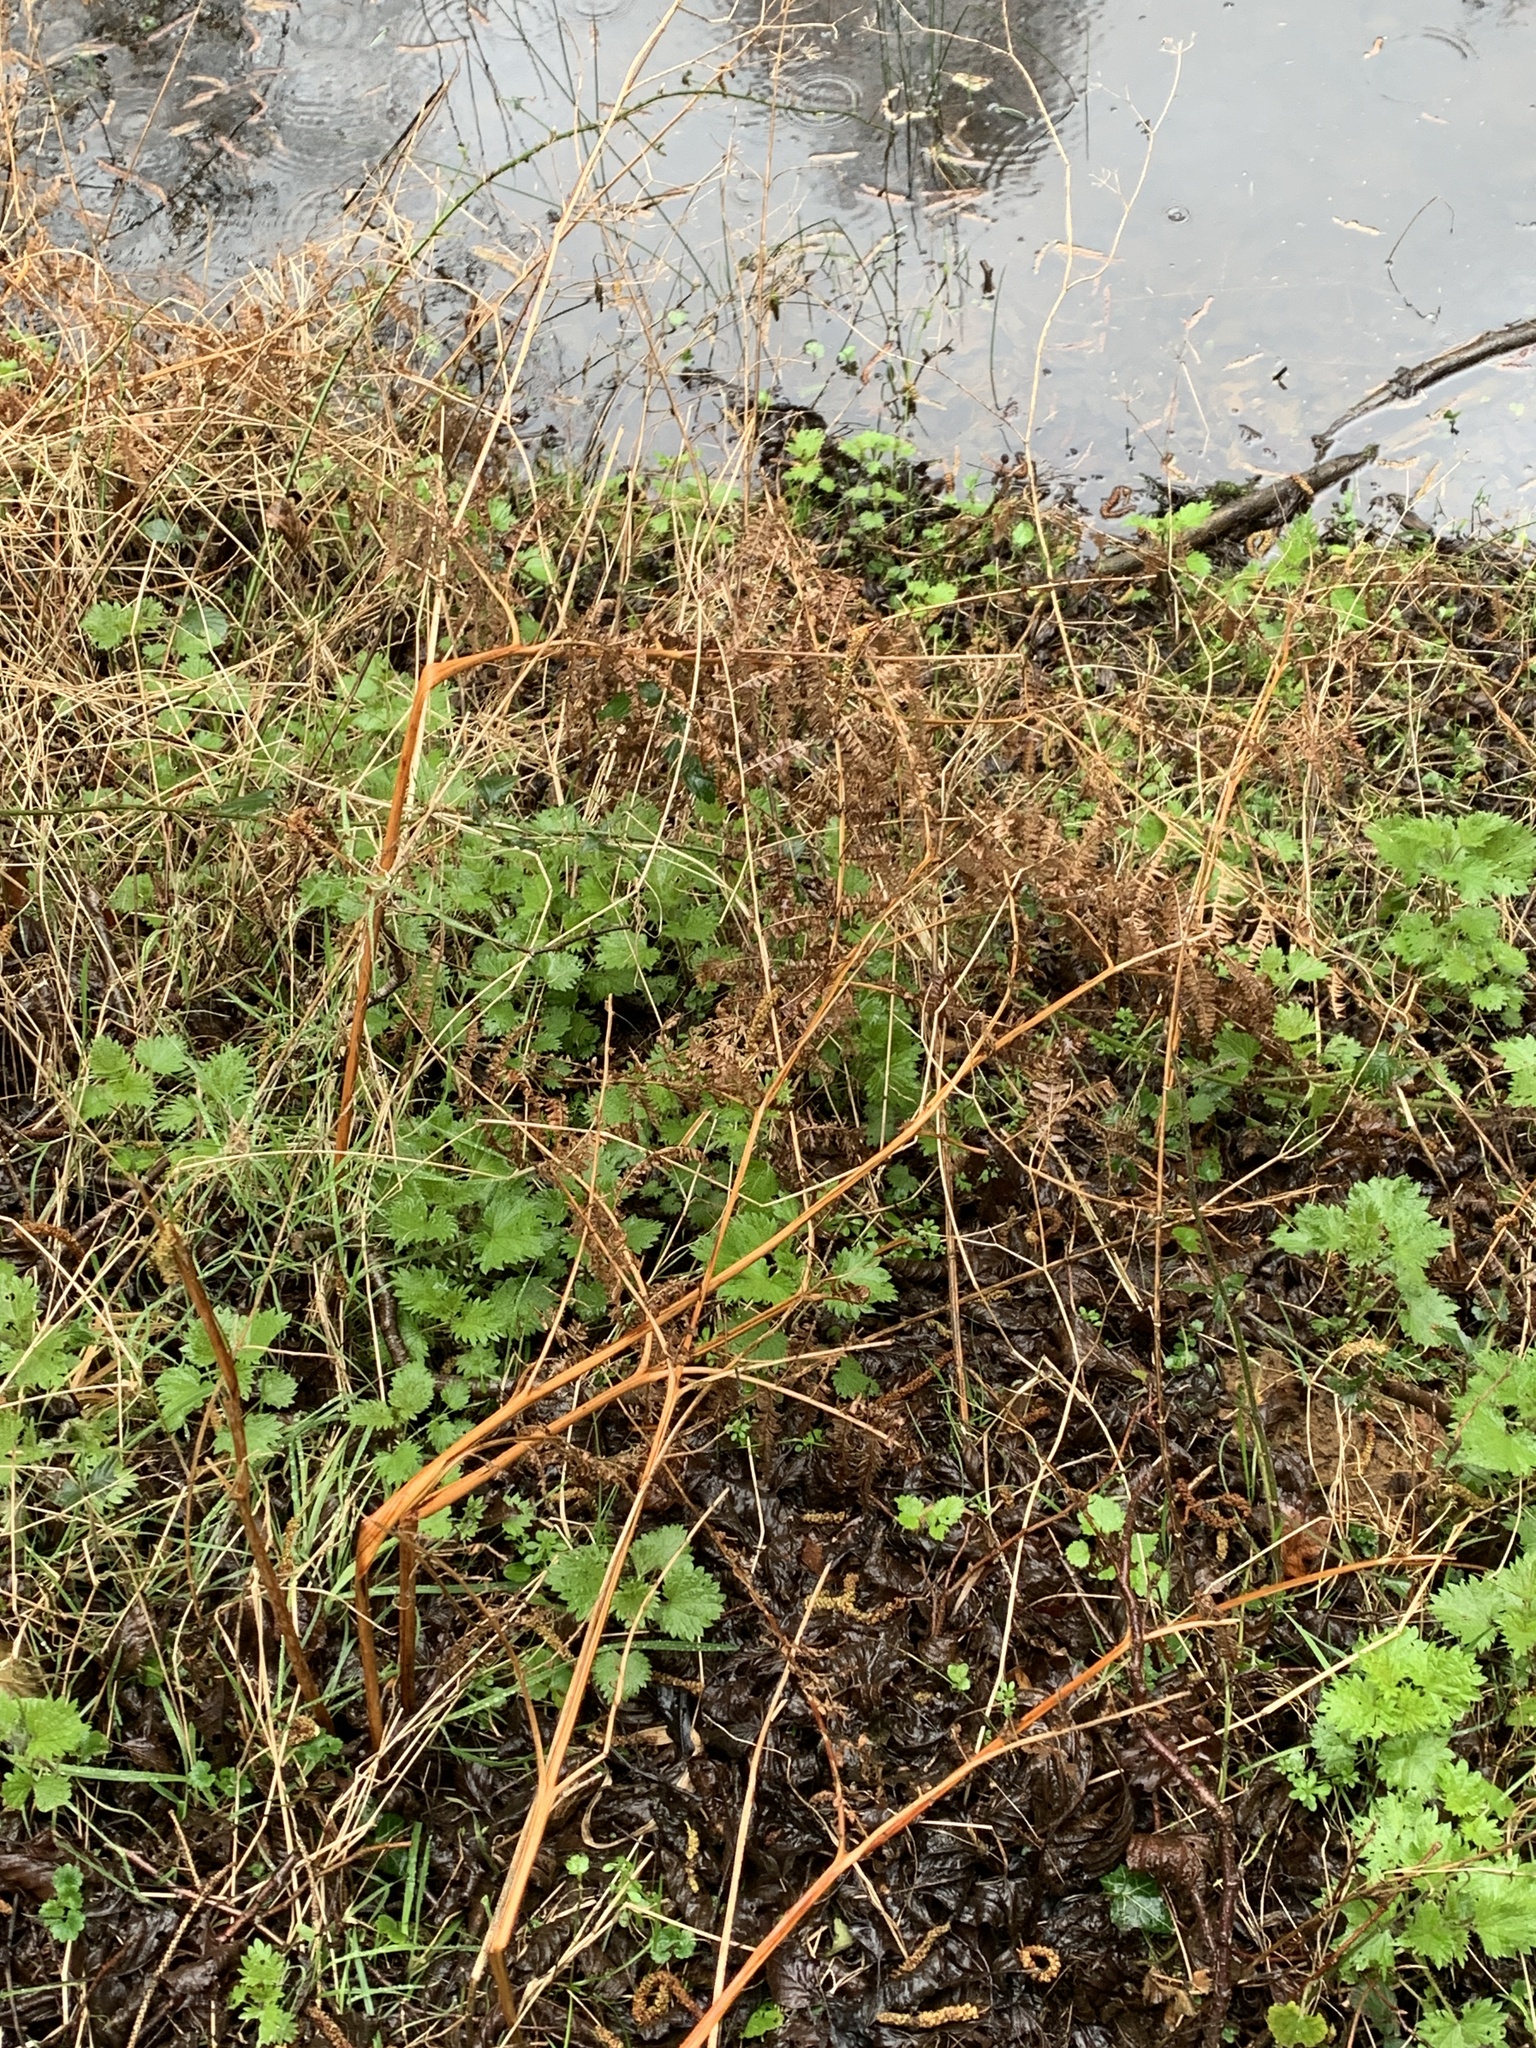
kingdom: Plantae
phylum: Tracheophyta
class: Polypodiopsida
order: Polypodiales
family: Dennstaedtiaceae
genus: Pteridium
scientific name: Pteridium aquilinum
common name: Bracken
